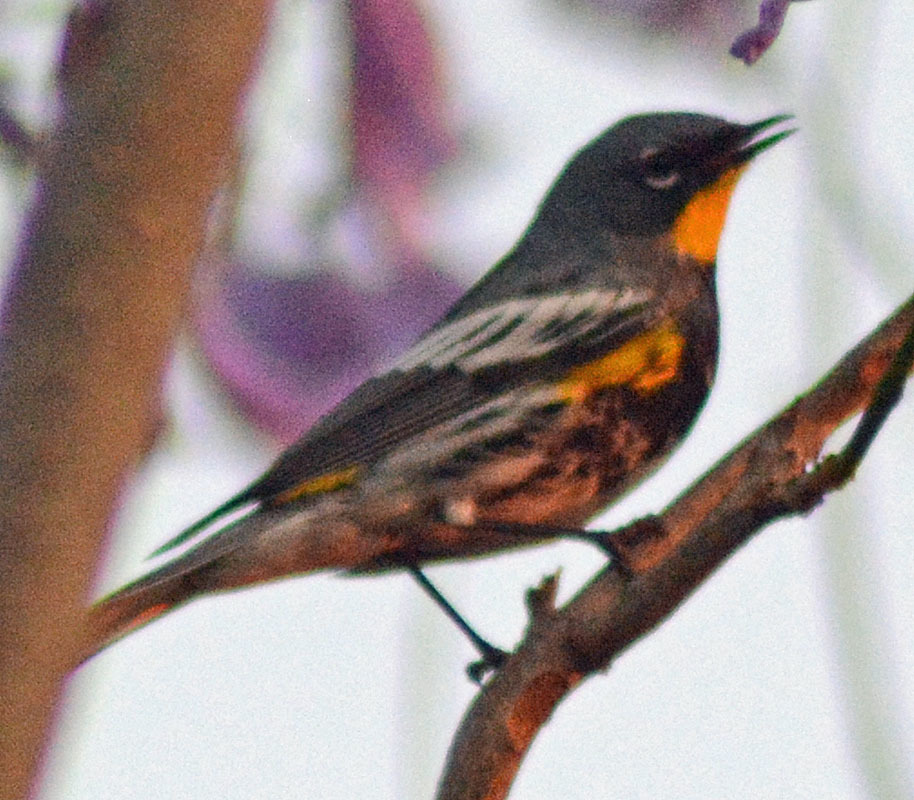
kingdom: Animalia
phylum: Chordata
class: Aves
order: Passeriformes
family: Parulidae
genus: Setophaga
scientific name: Setophaga auduboni
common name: Audubon's warbler
